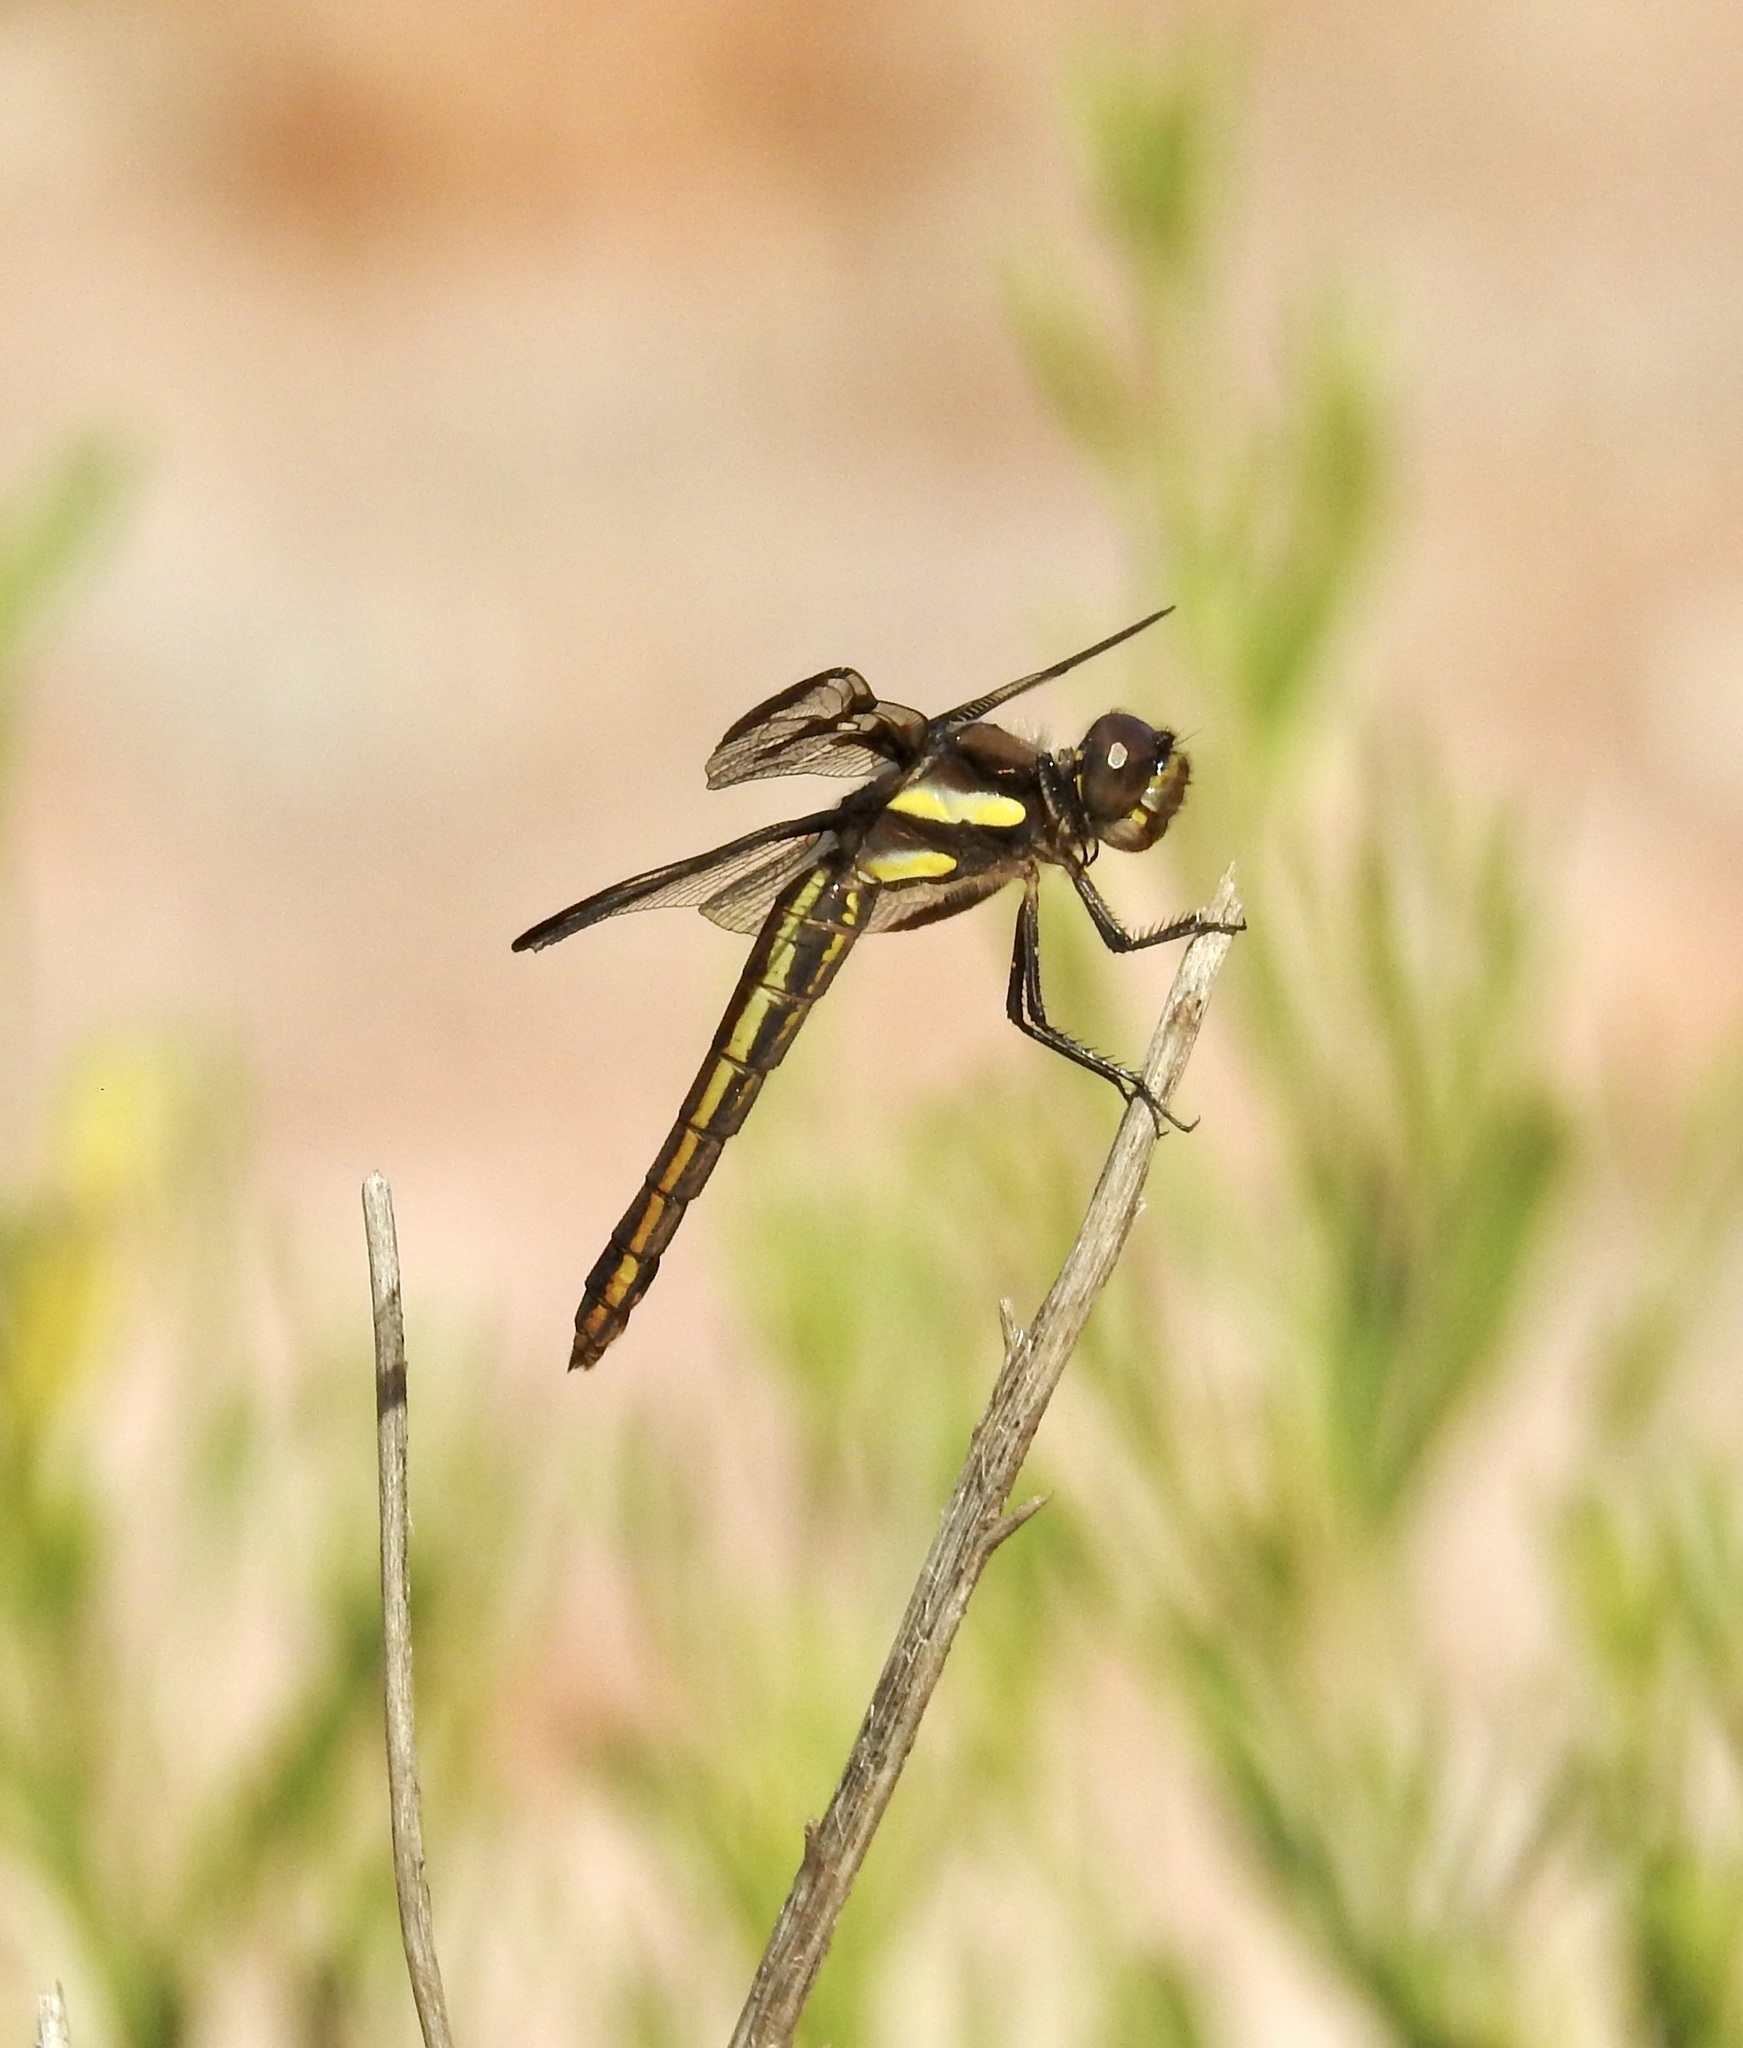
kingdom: Animalia
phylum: Arthropoda
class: Insecta
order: Odonata
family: Libellulidae
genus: Libellula
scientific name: Libellula pulchella
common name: Twelve-spotted skimmer
